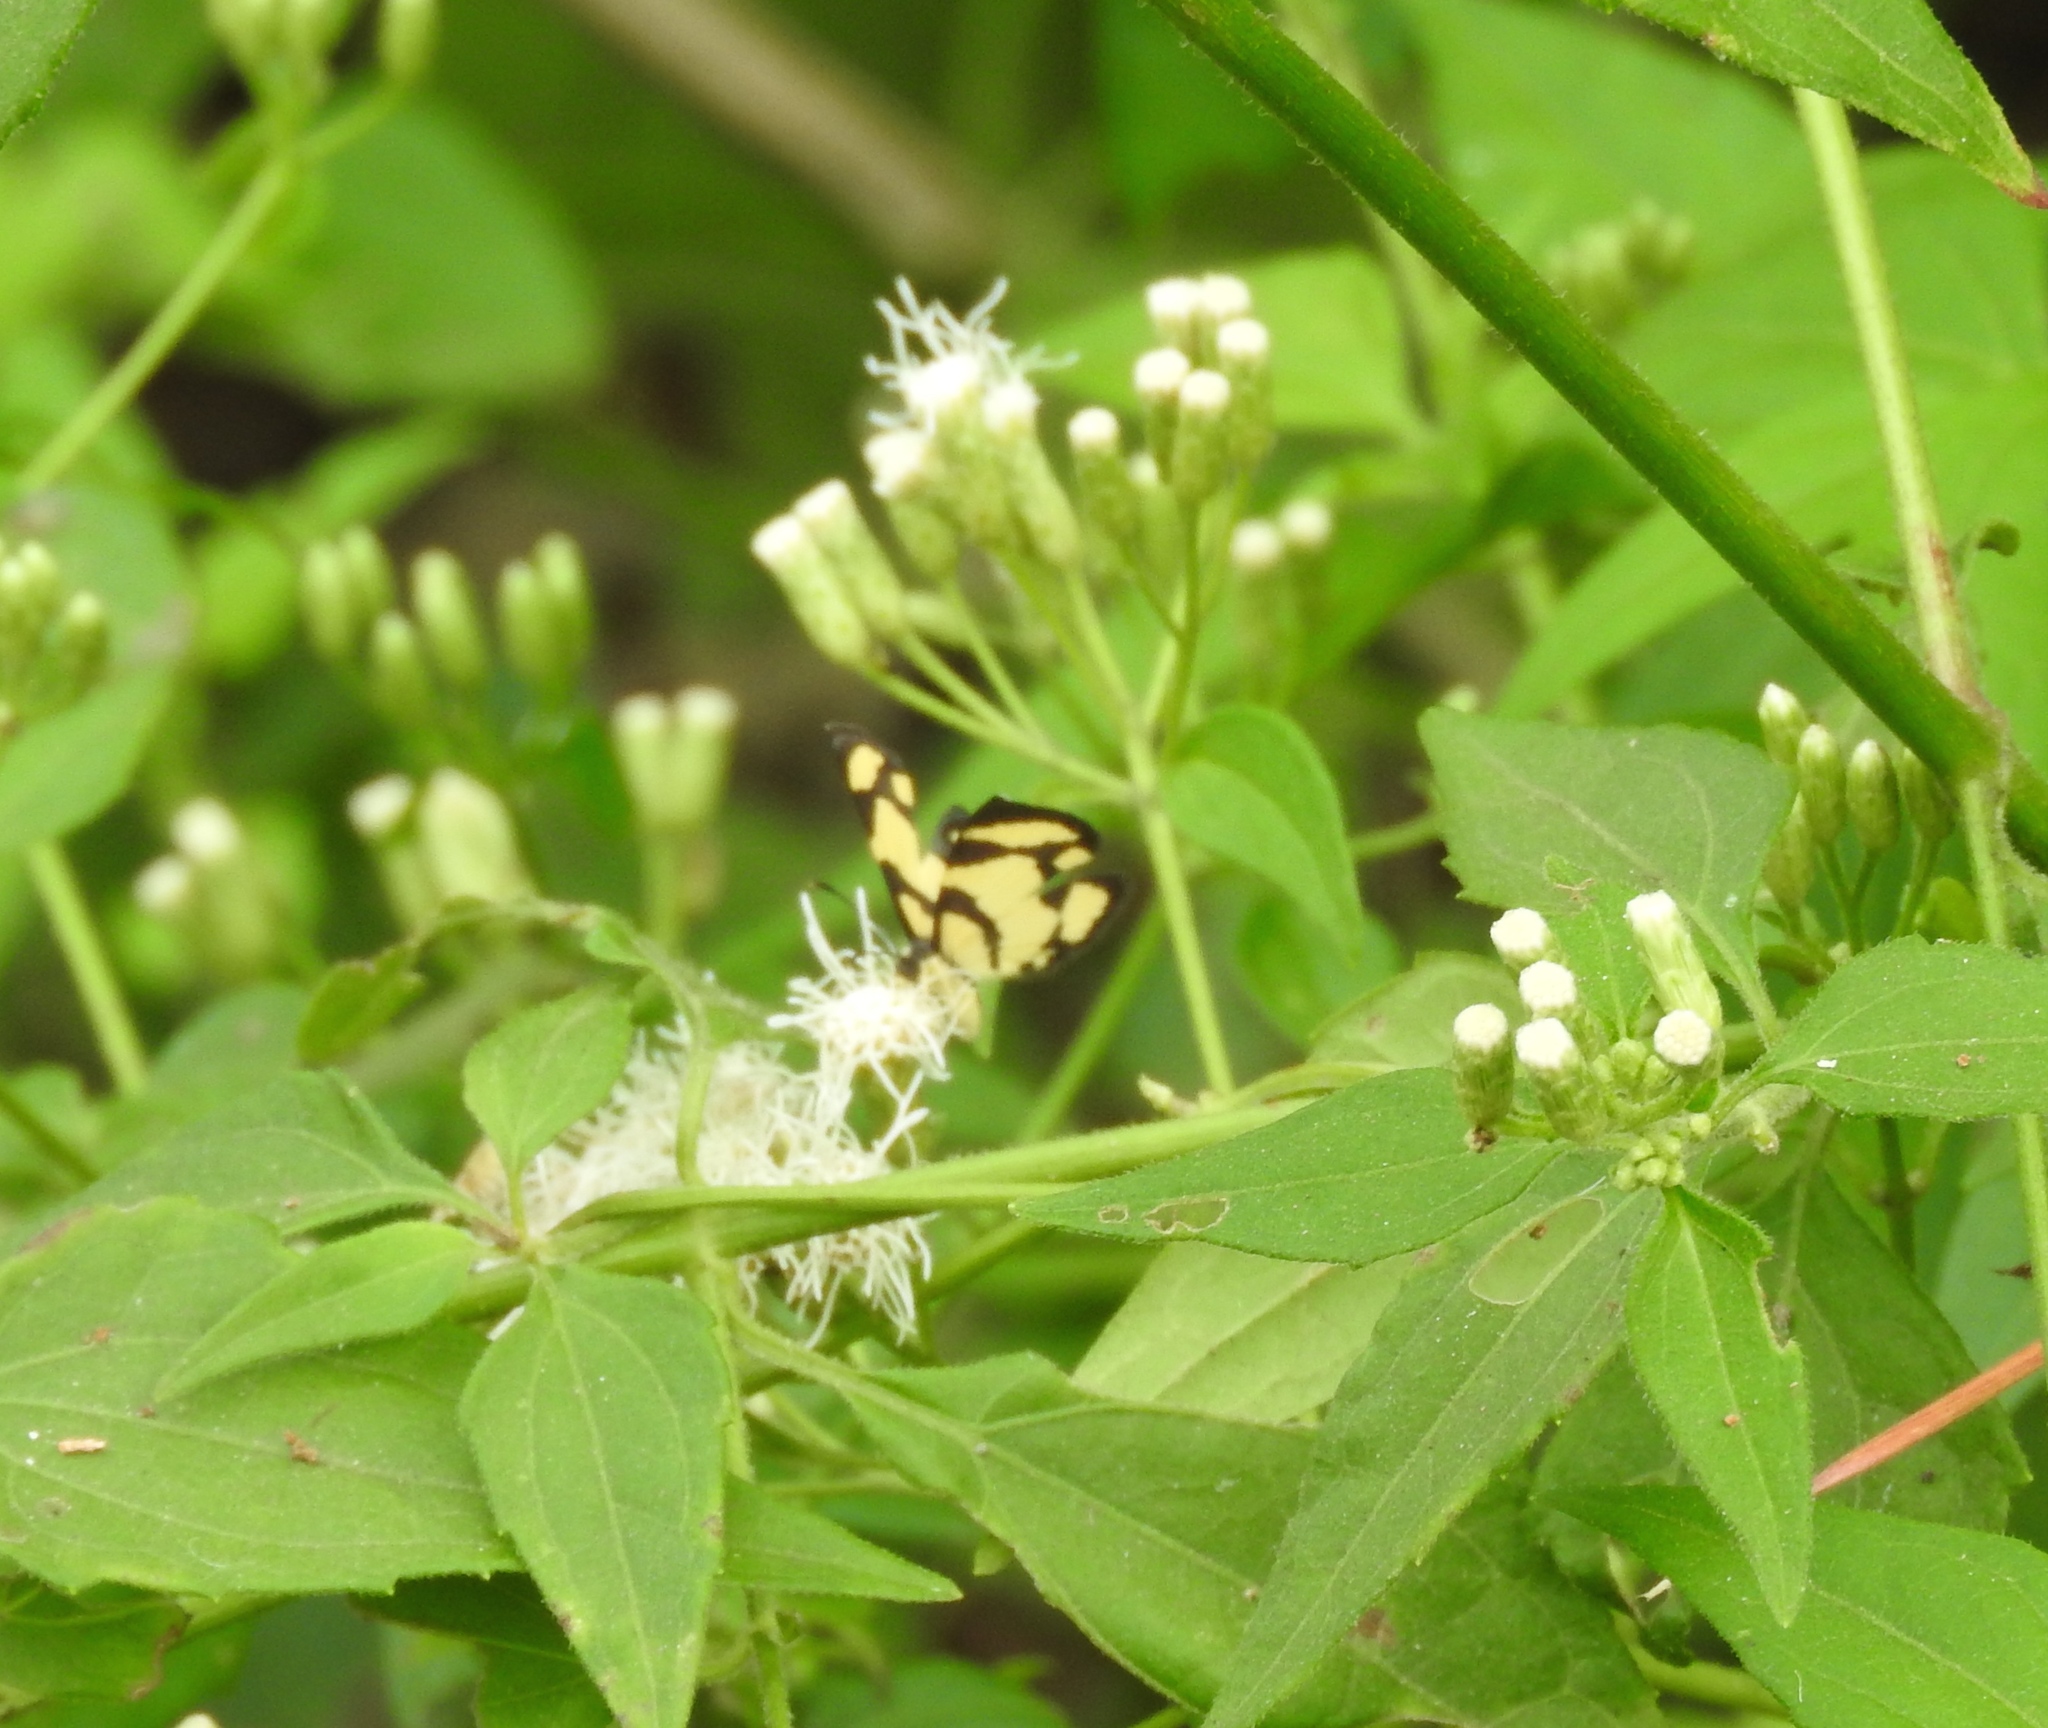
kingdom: Animalia
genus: Baeotis
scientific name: Baeotis zonata
